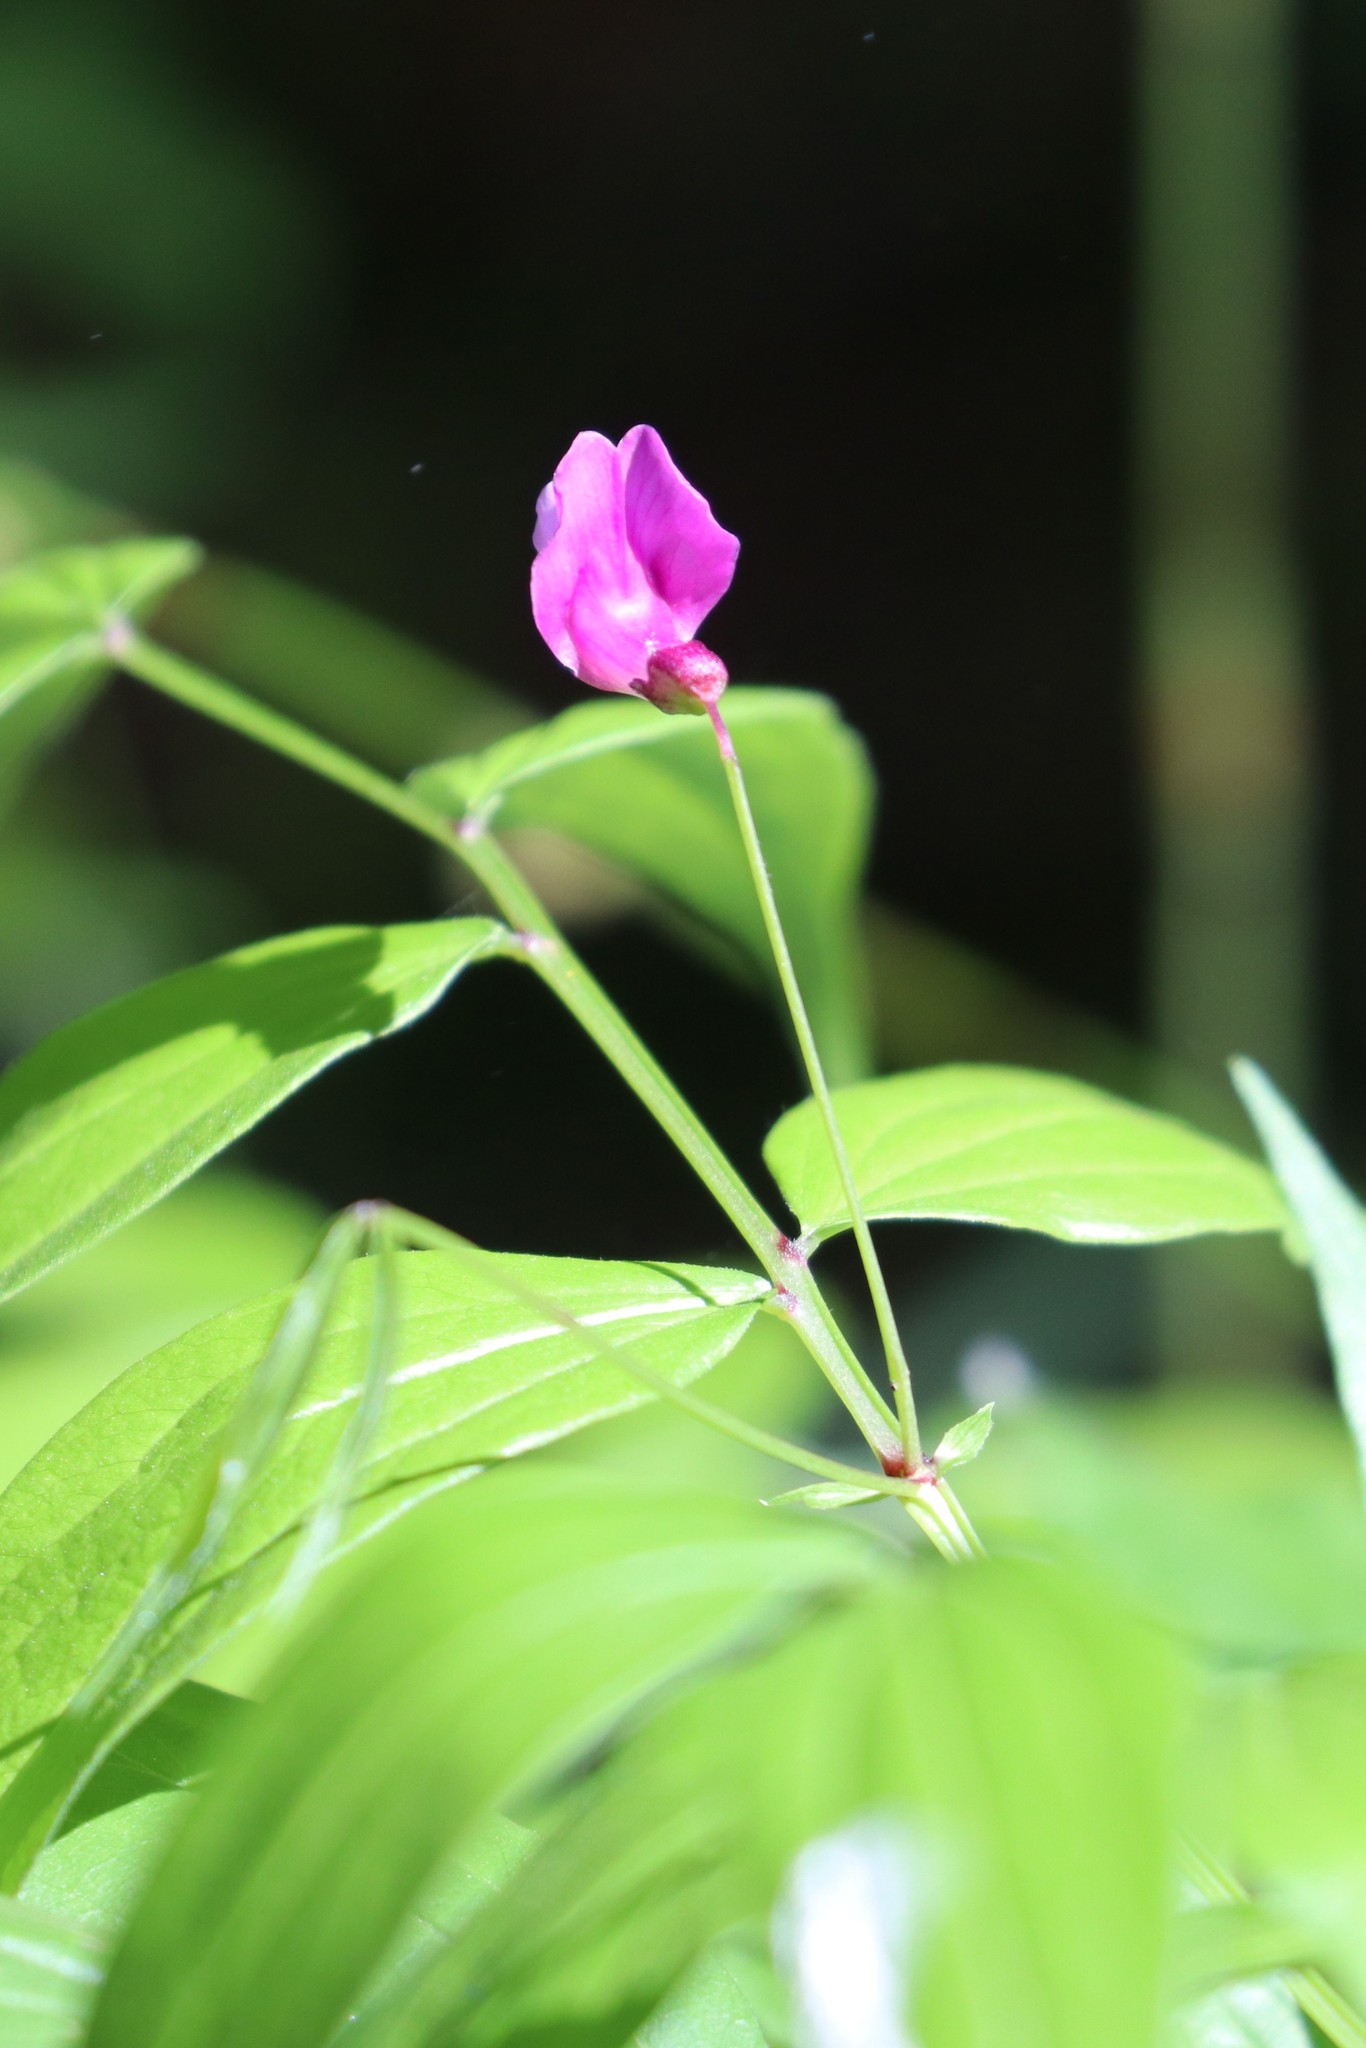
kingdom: Plantae
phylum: Tracheophyta
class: Magnoliopsida
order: Fabales
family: Fabaceae
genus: Lathyrus
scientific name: Lathyrus vernus
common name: Spring pea
